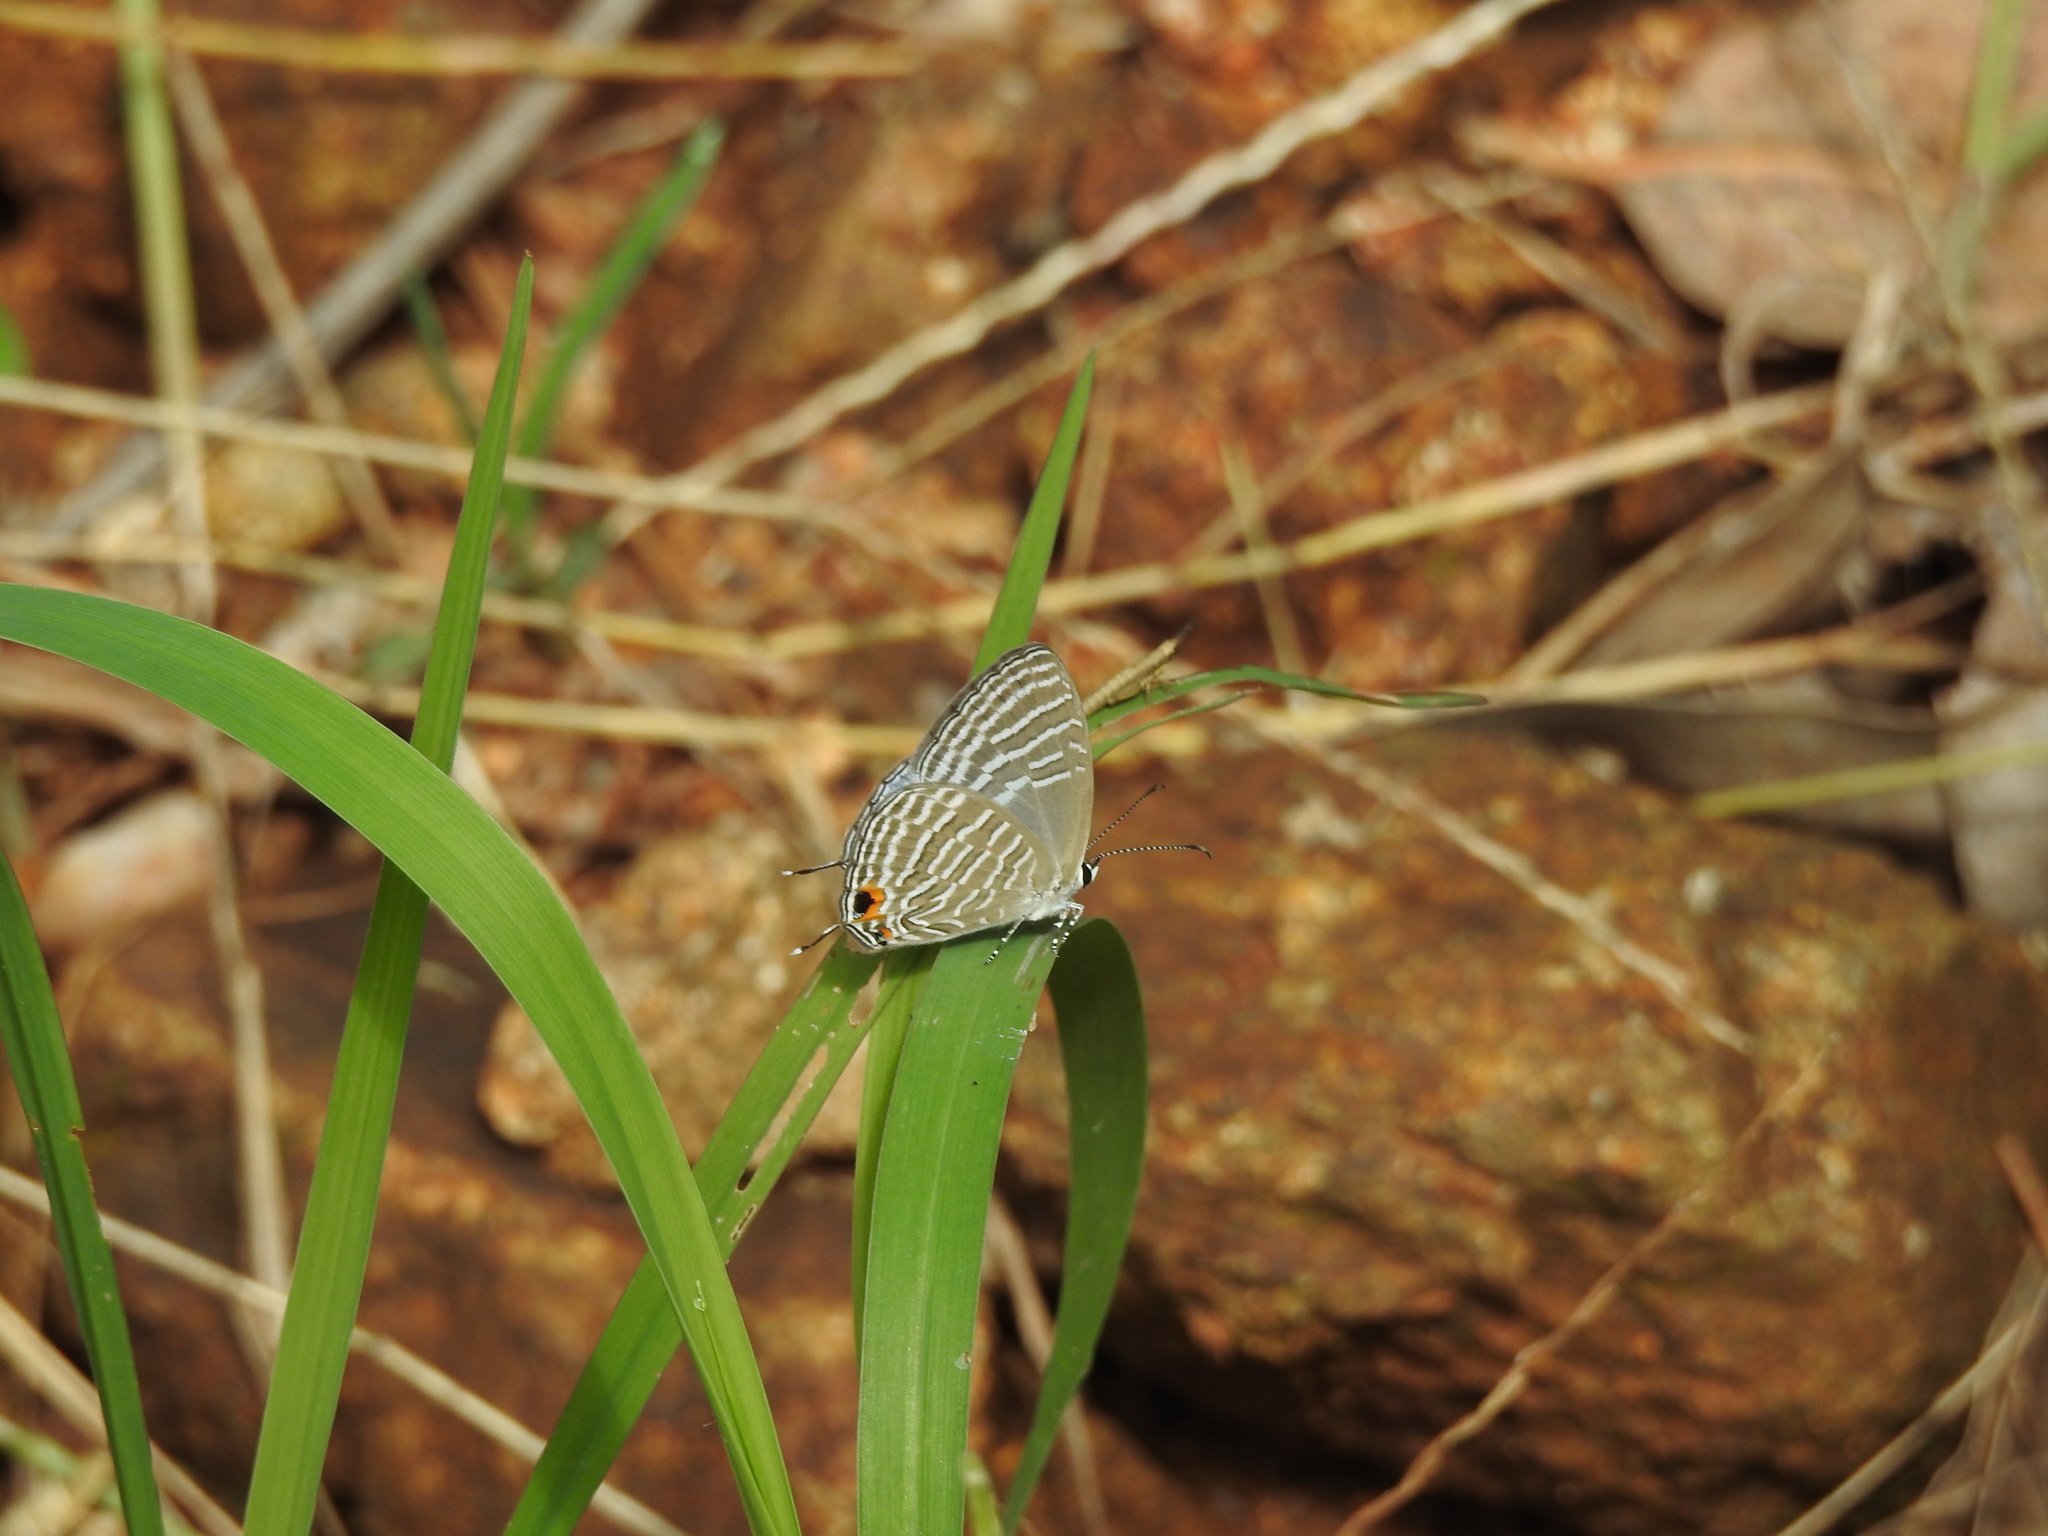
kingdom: Animalia
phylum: Arthropoda
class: Insecta
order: Lepidoptera
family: Lycaenidae
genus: Jamides
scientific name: Jamides celeno
